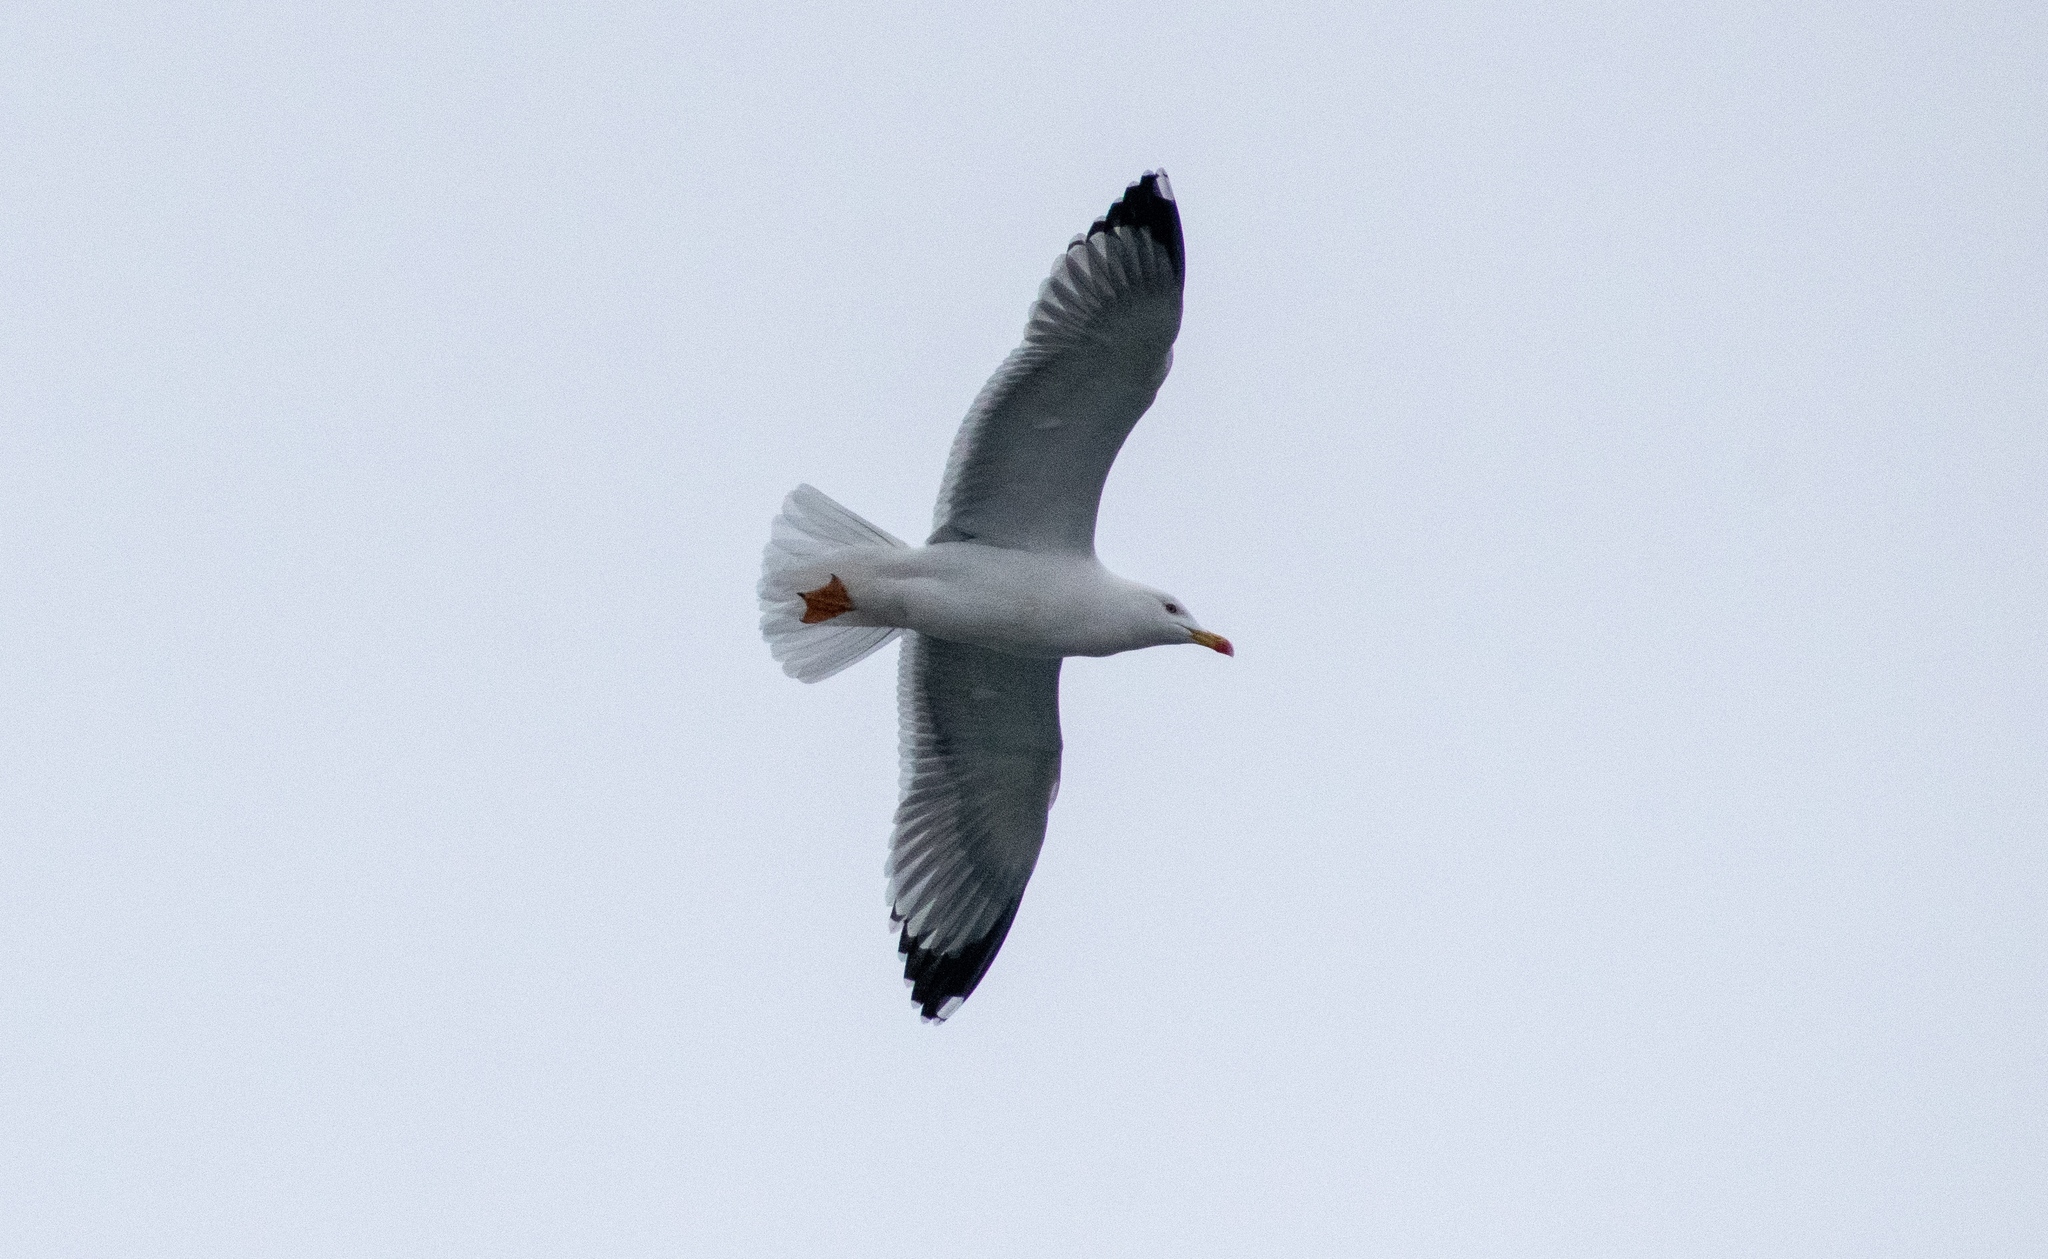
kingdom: Animalia
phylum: Chordata
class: Aves
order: Charadriiformes
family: Laridae
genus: Larus
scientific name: Larus michahellis
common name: Yellow-legged gull
